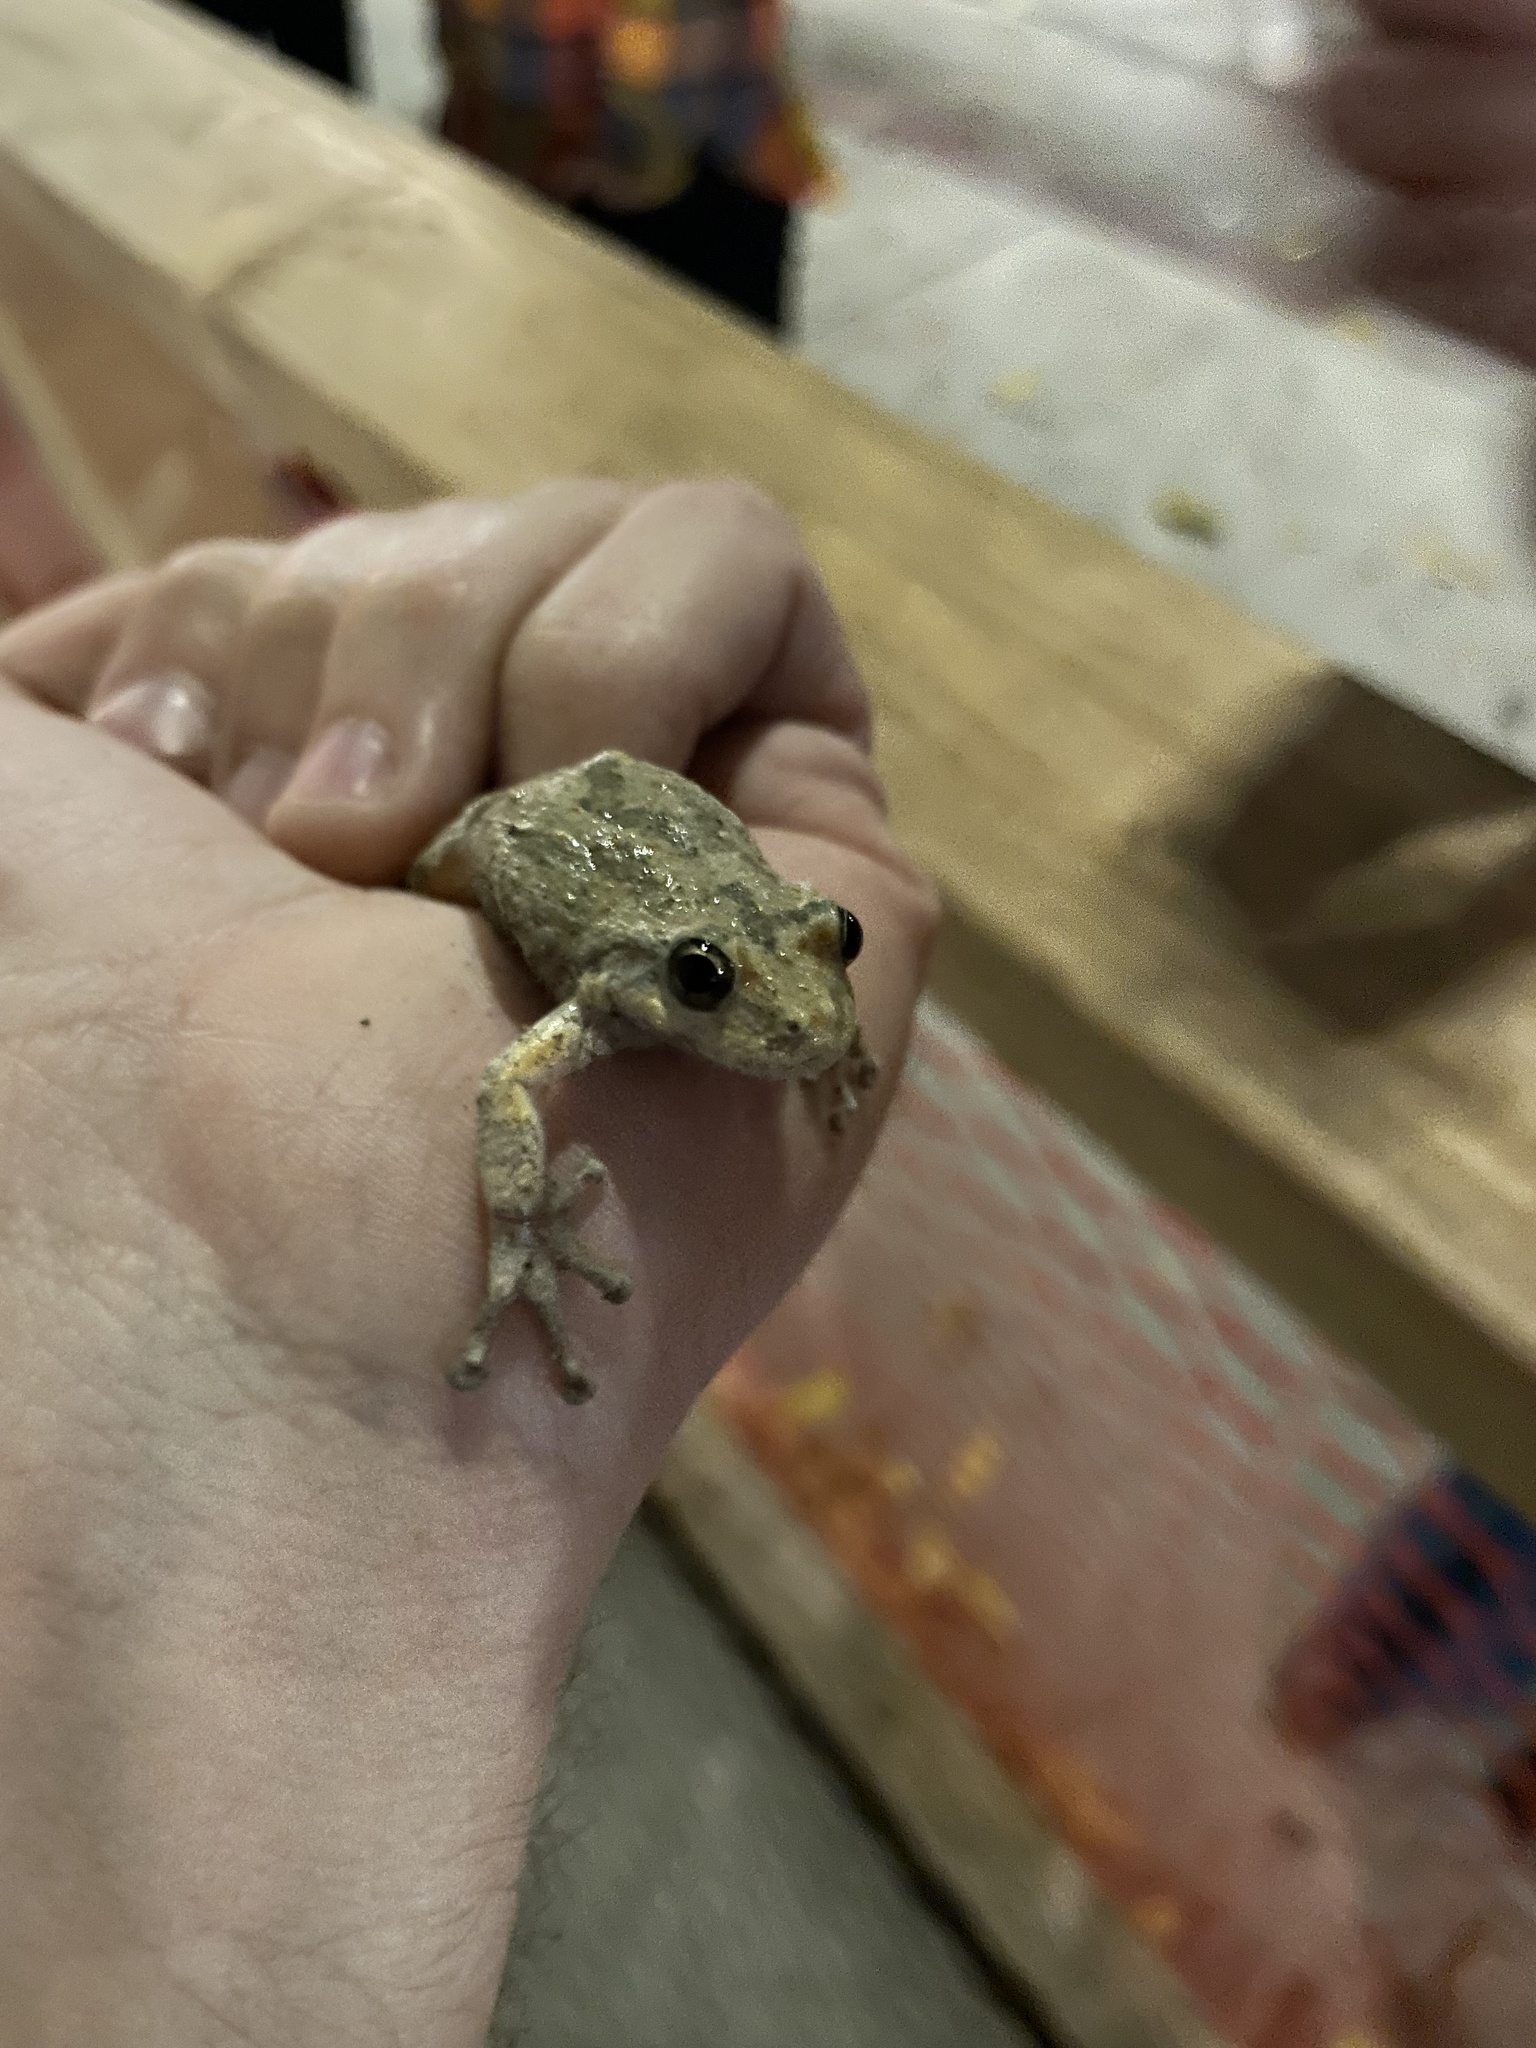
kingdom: Animalia
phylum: Chordata
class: Amphibia
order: Anura
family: Hylidae
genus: Pseudacris
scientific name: Pseudacris cadaverina
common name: California chorus frog
